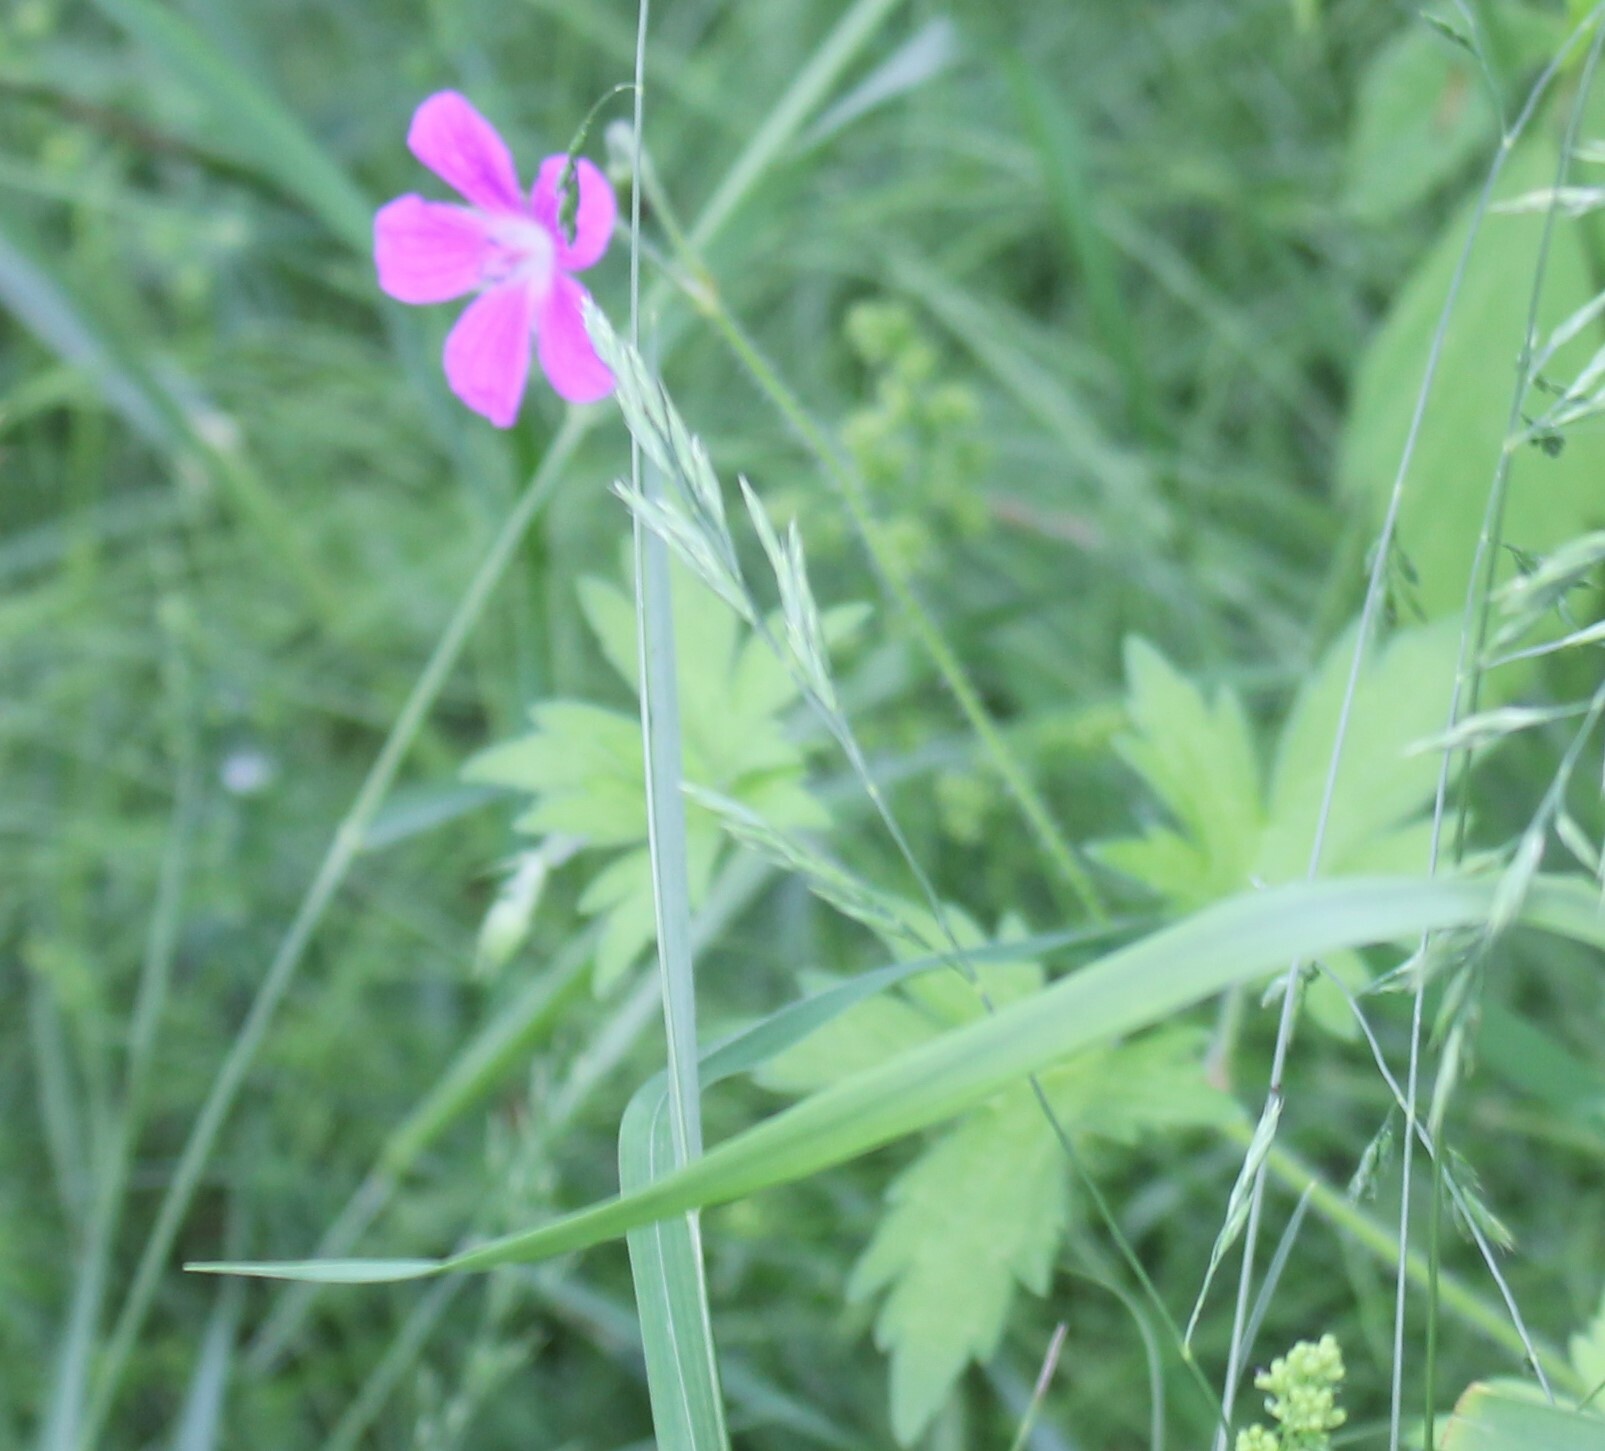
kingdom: Plantae
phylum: Tracheophyta
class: Magnoliopsida
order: Geraniales
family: Geraniaceae
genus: Geranium
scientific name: Geranium palustre
